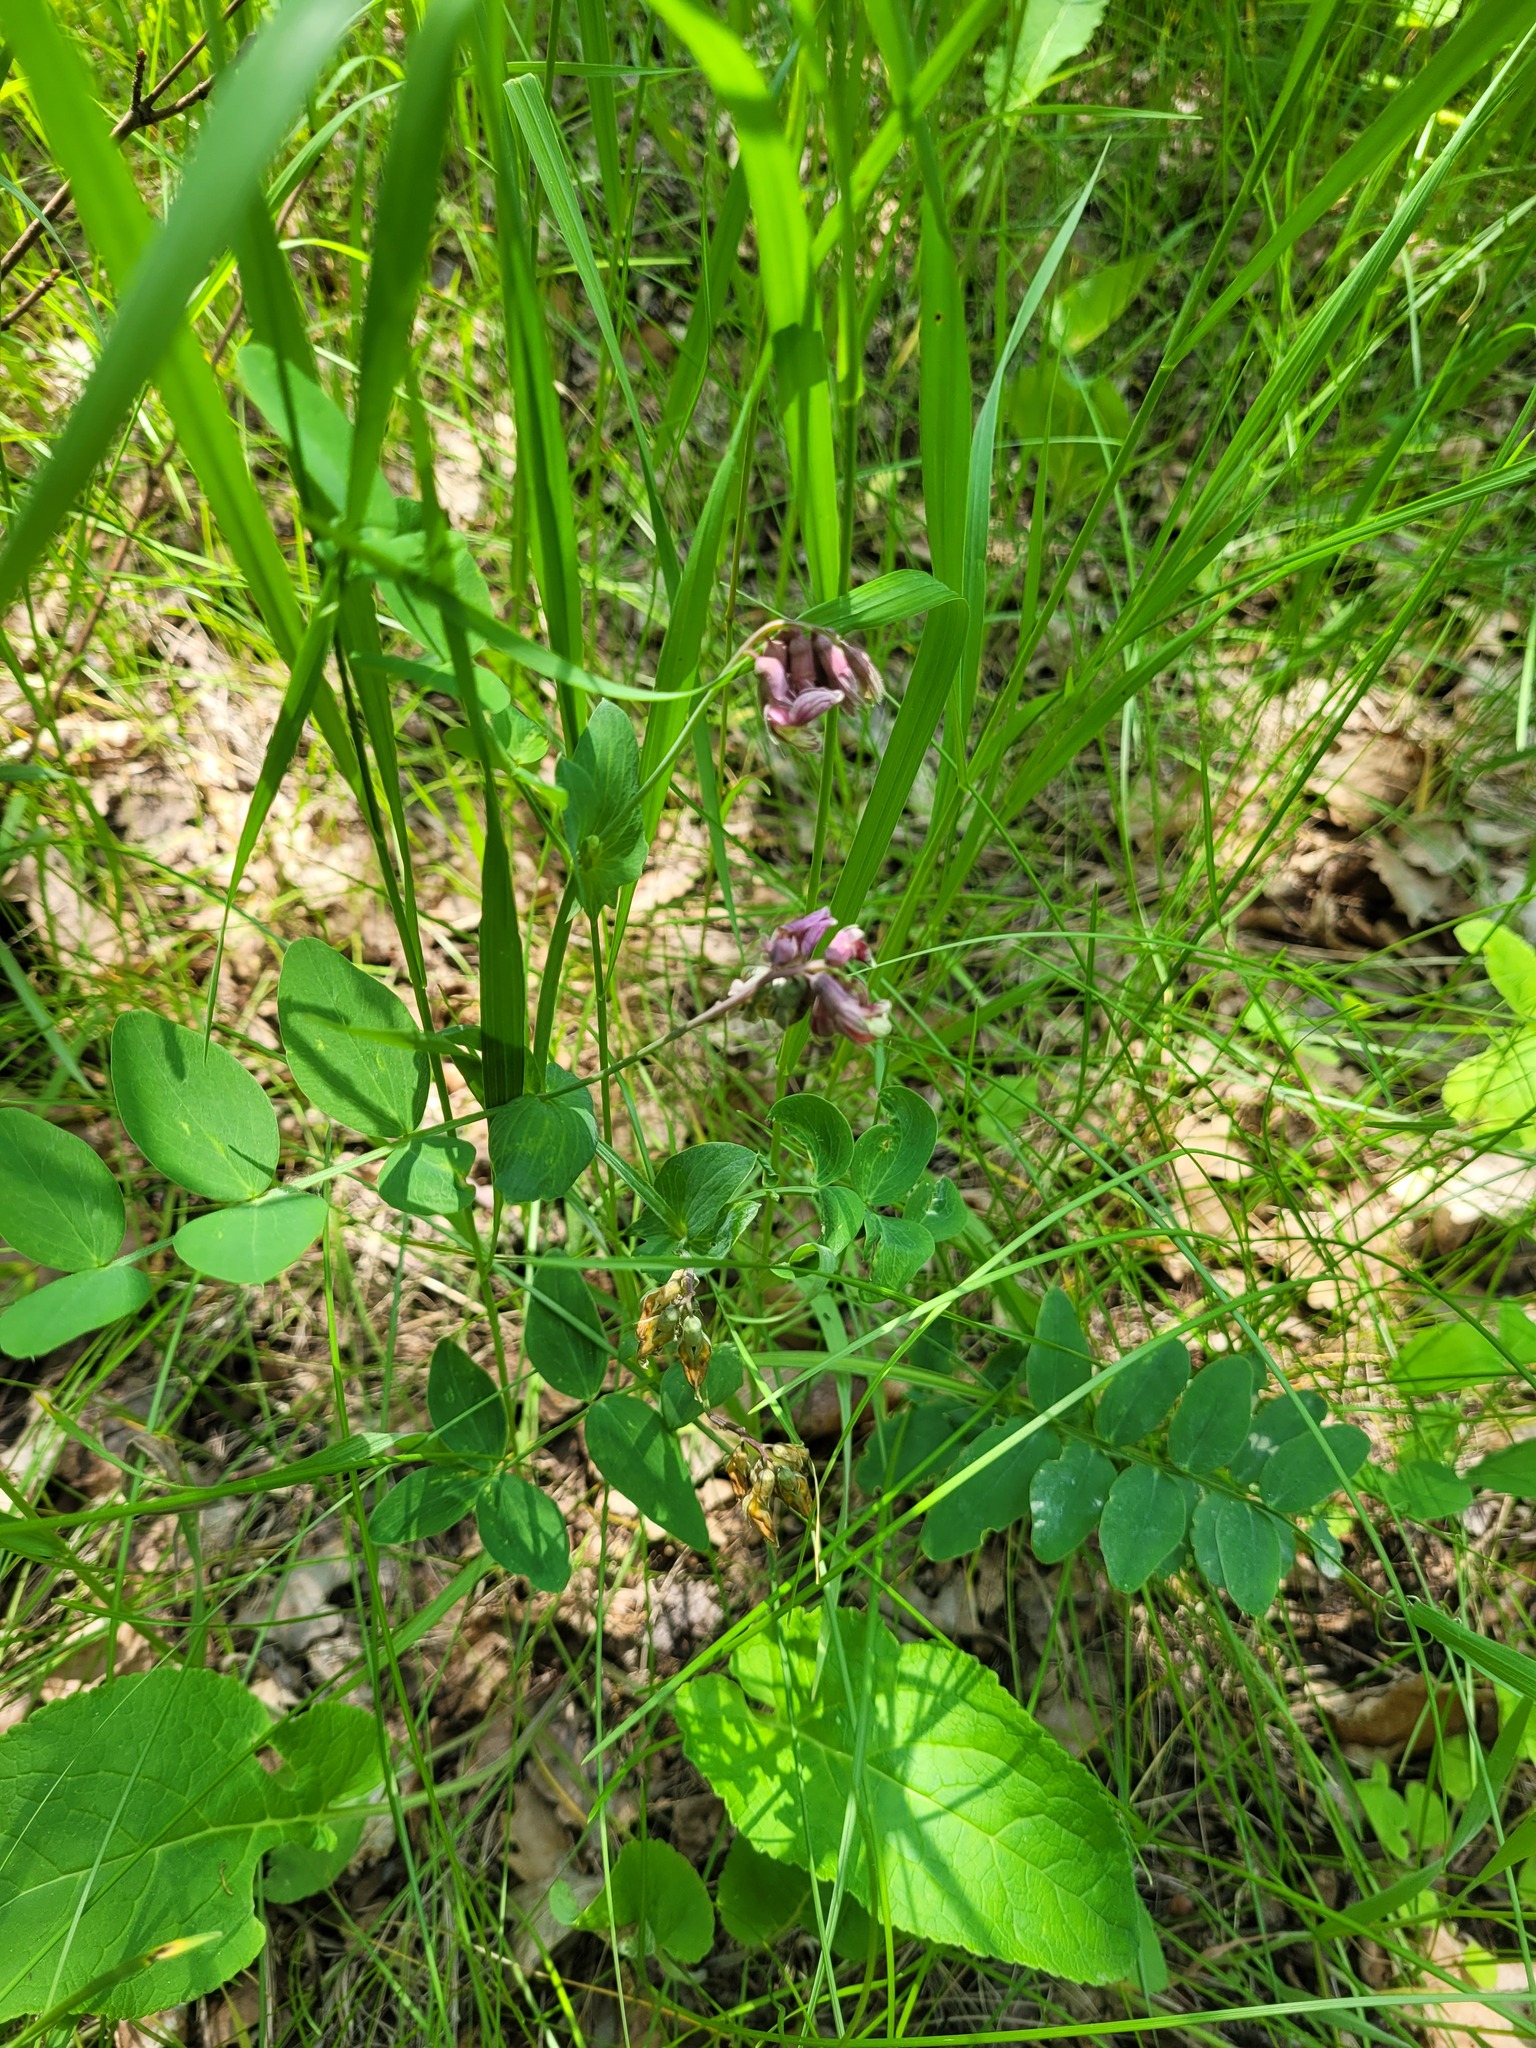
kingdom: Plantae
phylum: Tracheophyta
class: Magnoliopsida
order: Fabales
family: Fabaceae
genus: Lathyrus
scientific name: Lathyrus pisiformis
